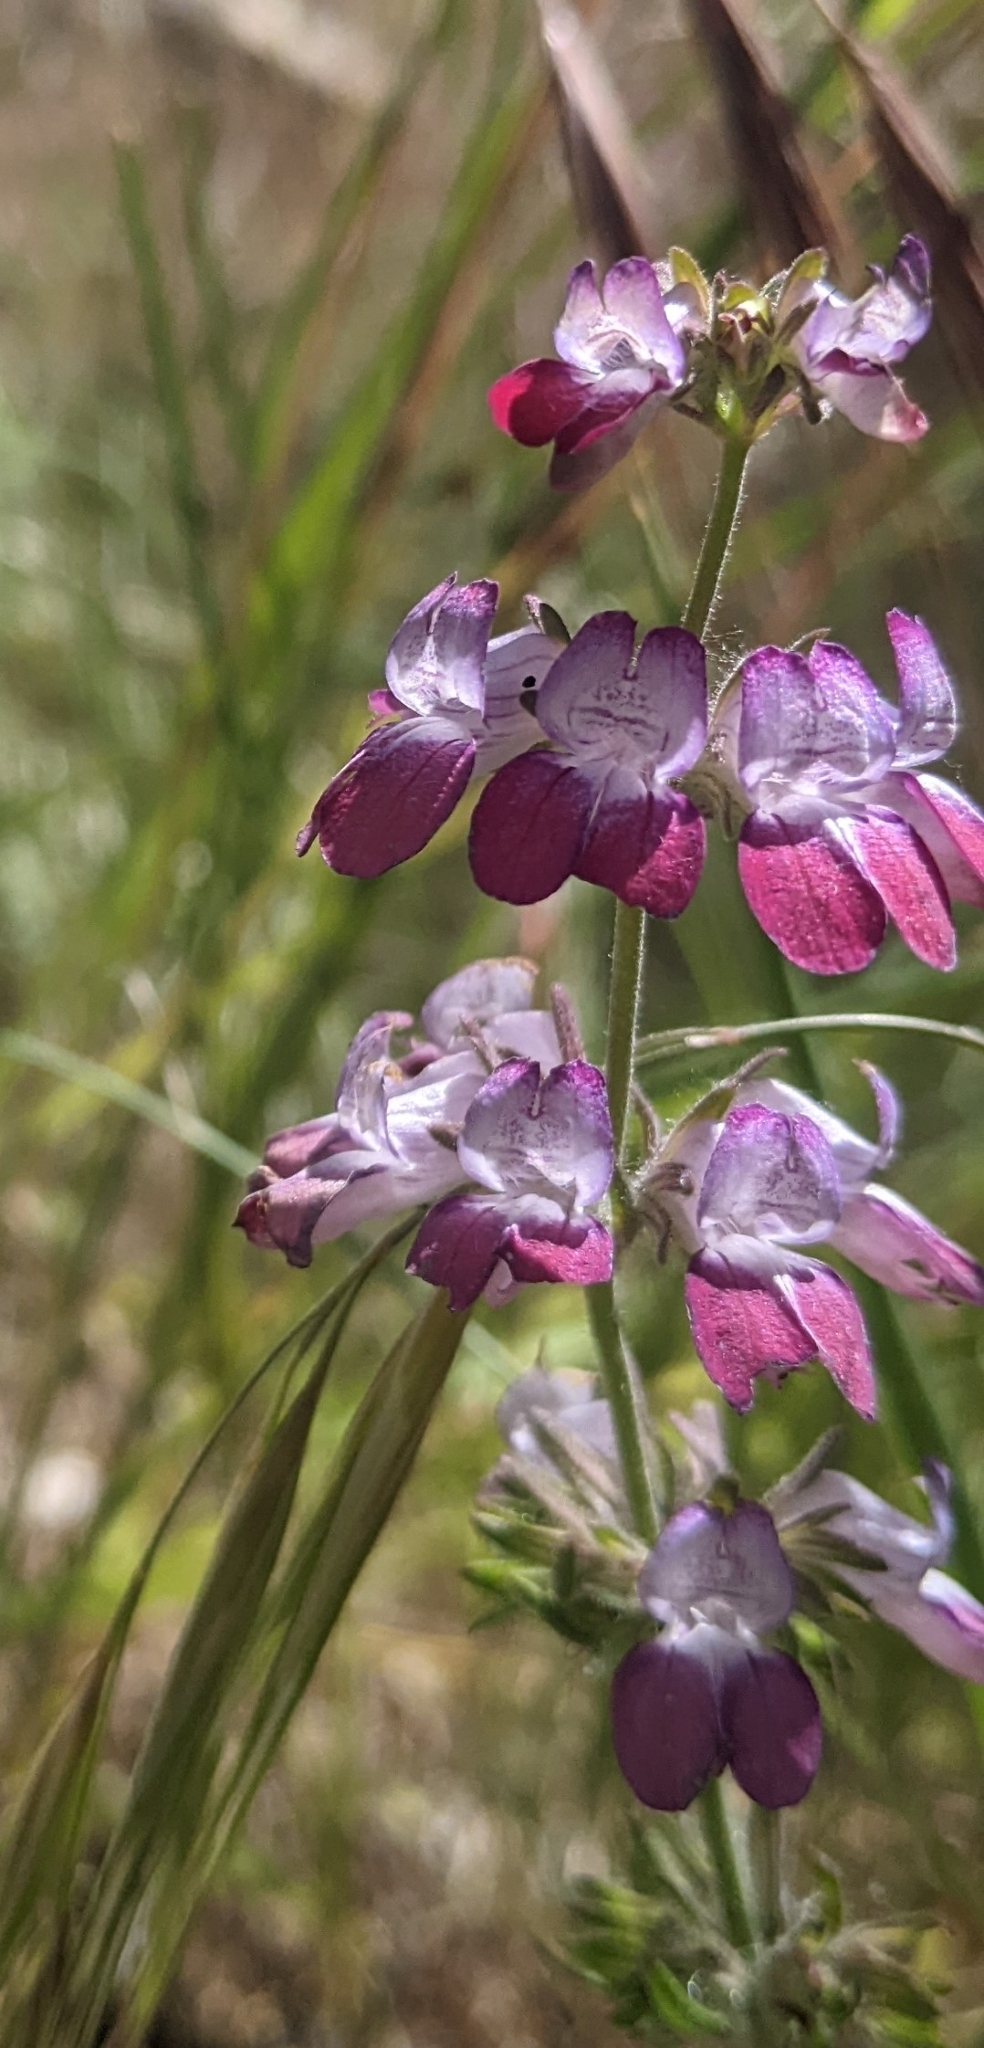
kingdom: Plantae
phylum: Tracheophyta
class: Magnoliopsida
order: Lamiales
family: Plantaginaceae
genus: Collinsia
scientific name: Collinsia heterophylla
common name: Chinese-houses
